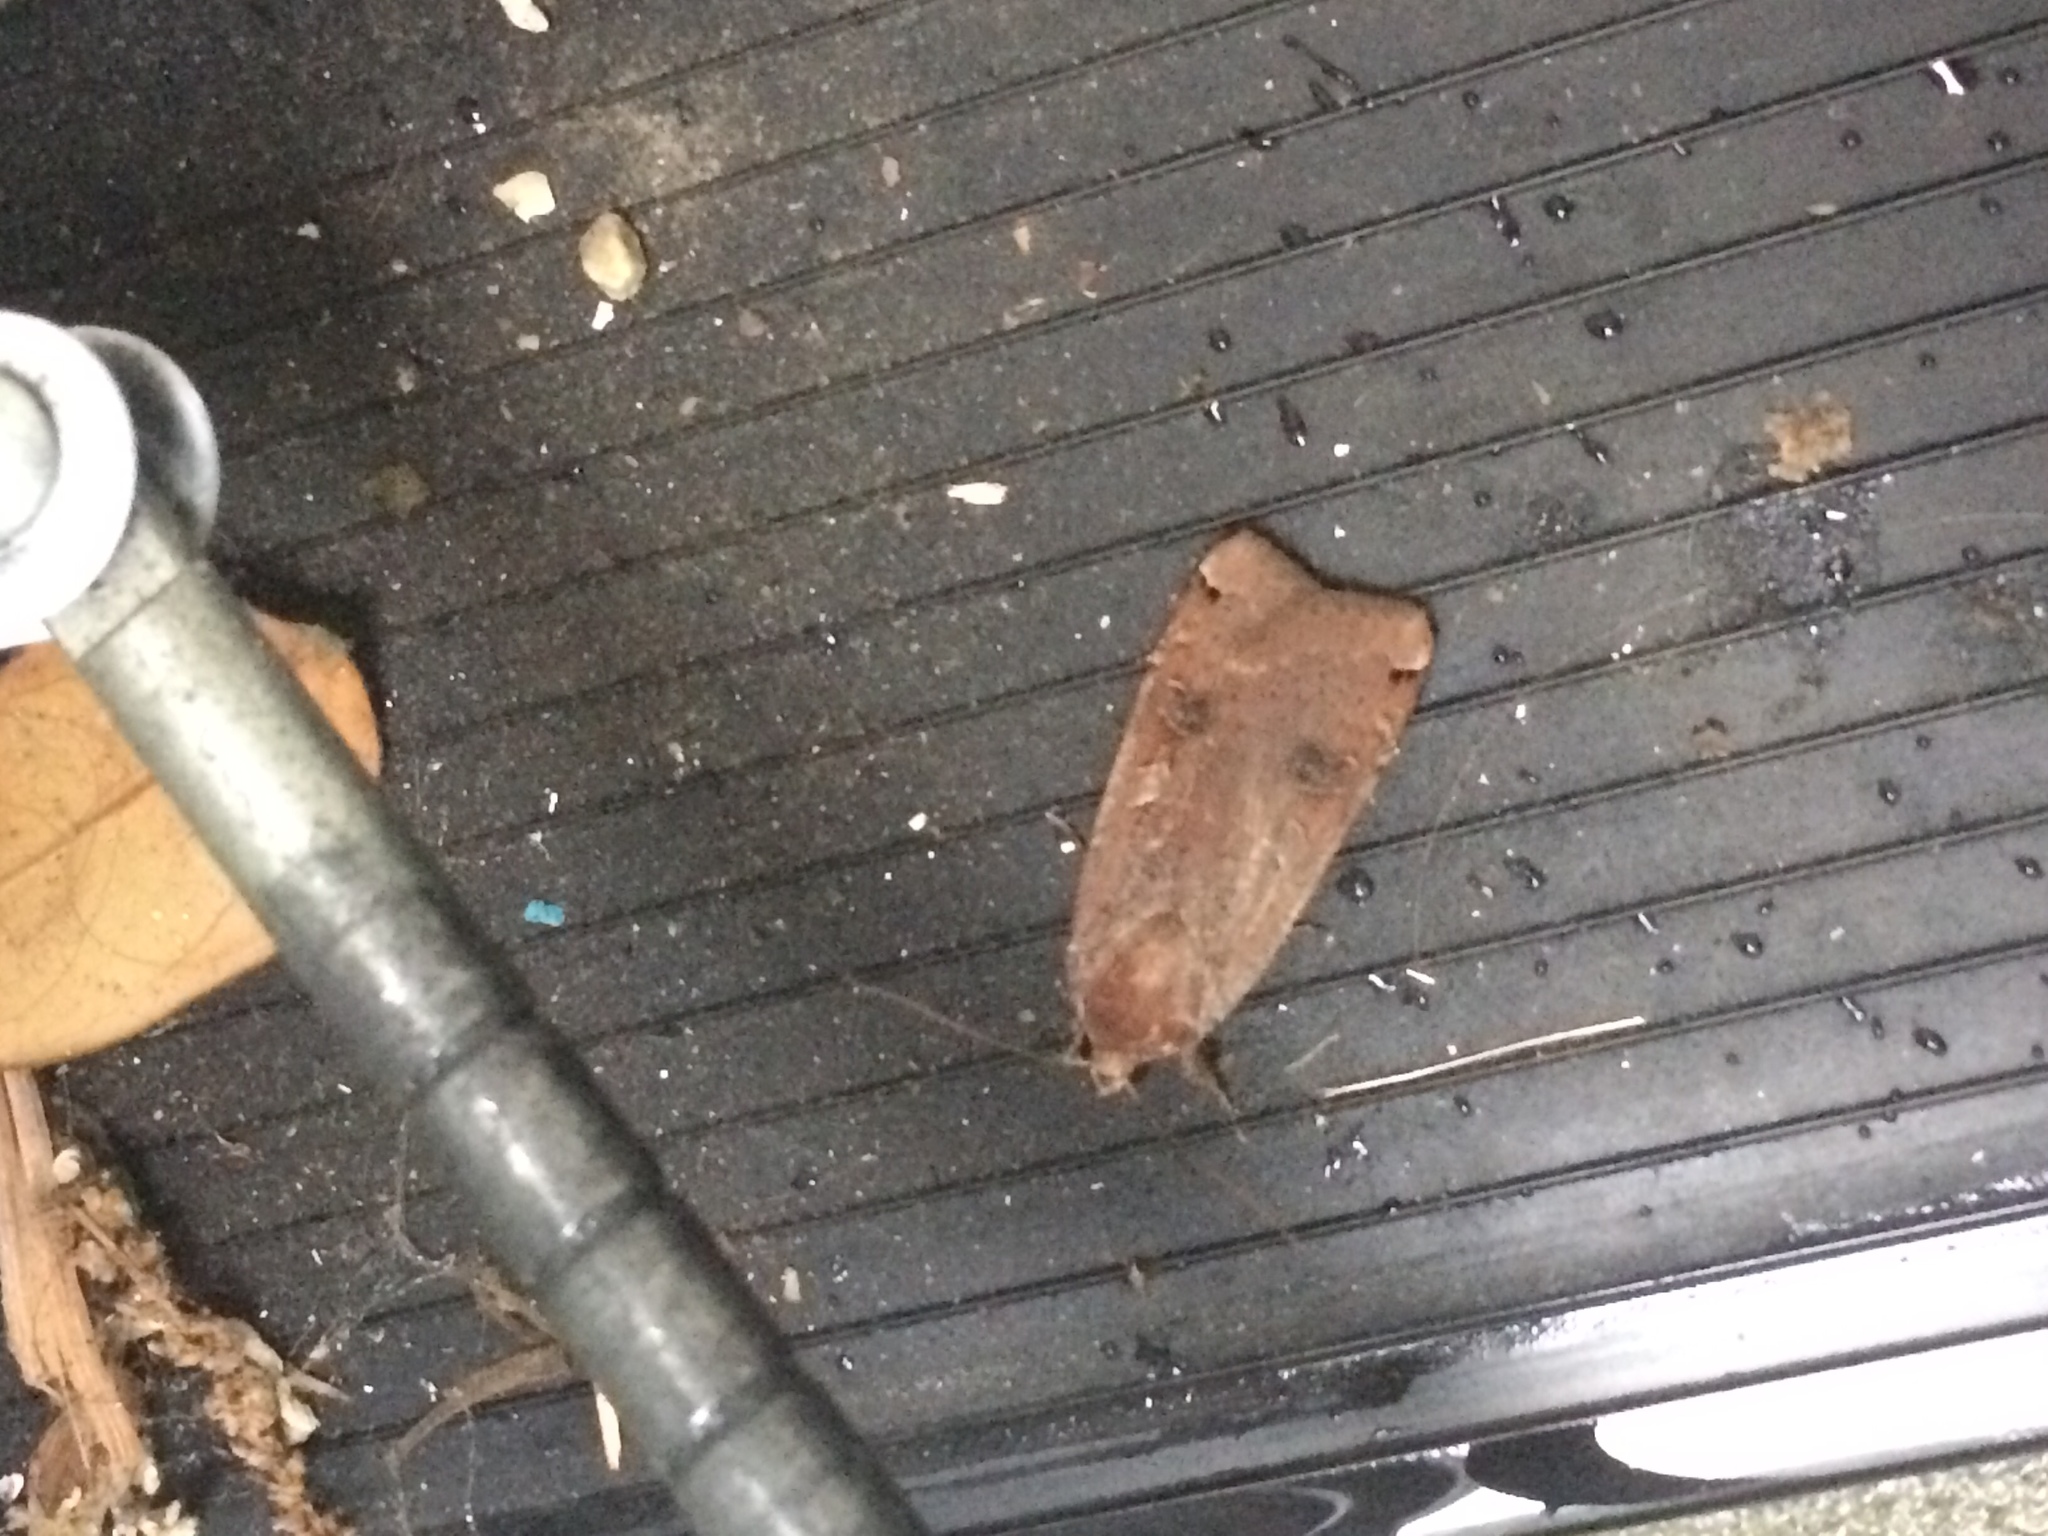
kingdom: Animalia
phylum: Arthropoda
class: Insecta
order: Lepidoptera
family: Noctuidae
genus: Noctua
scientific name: Noctua pronuba
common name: Large yellow underwing
